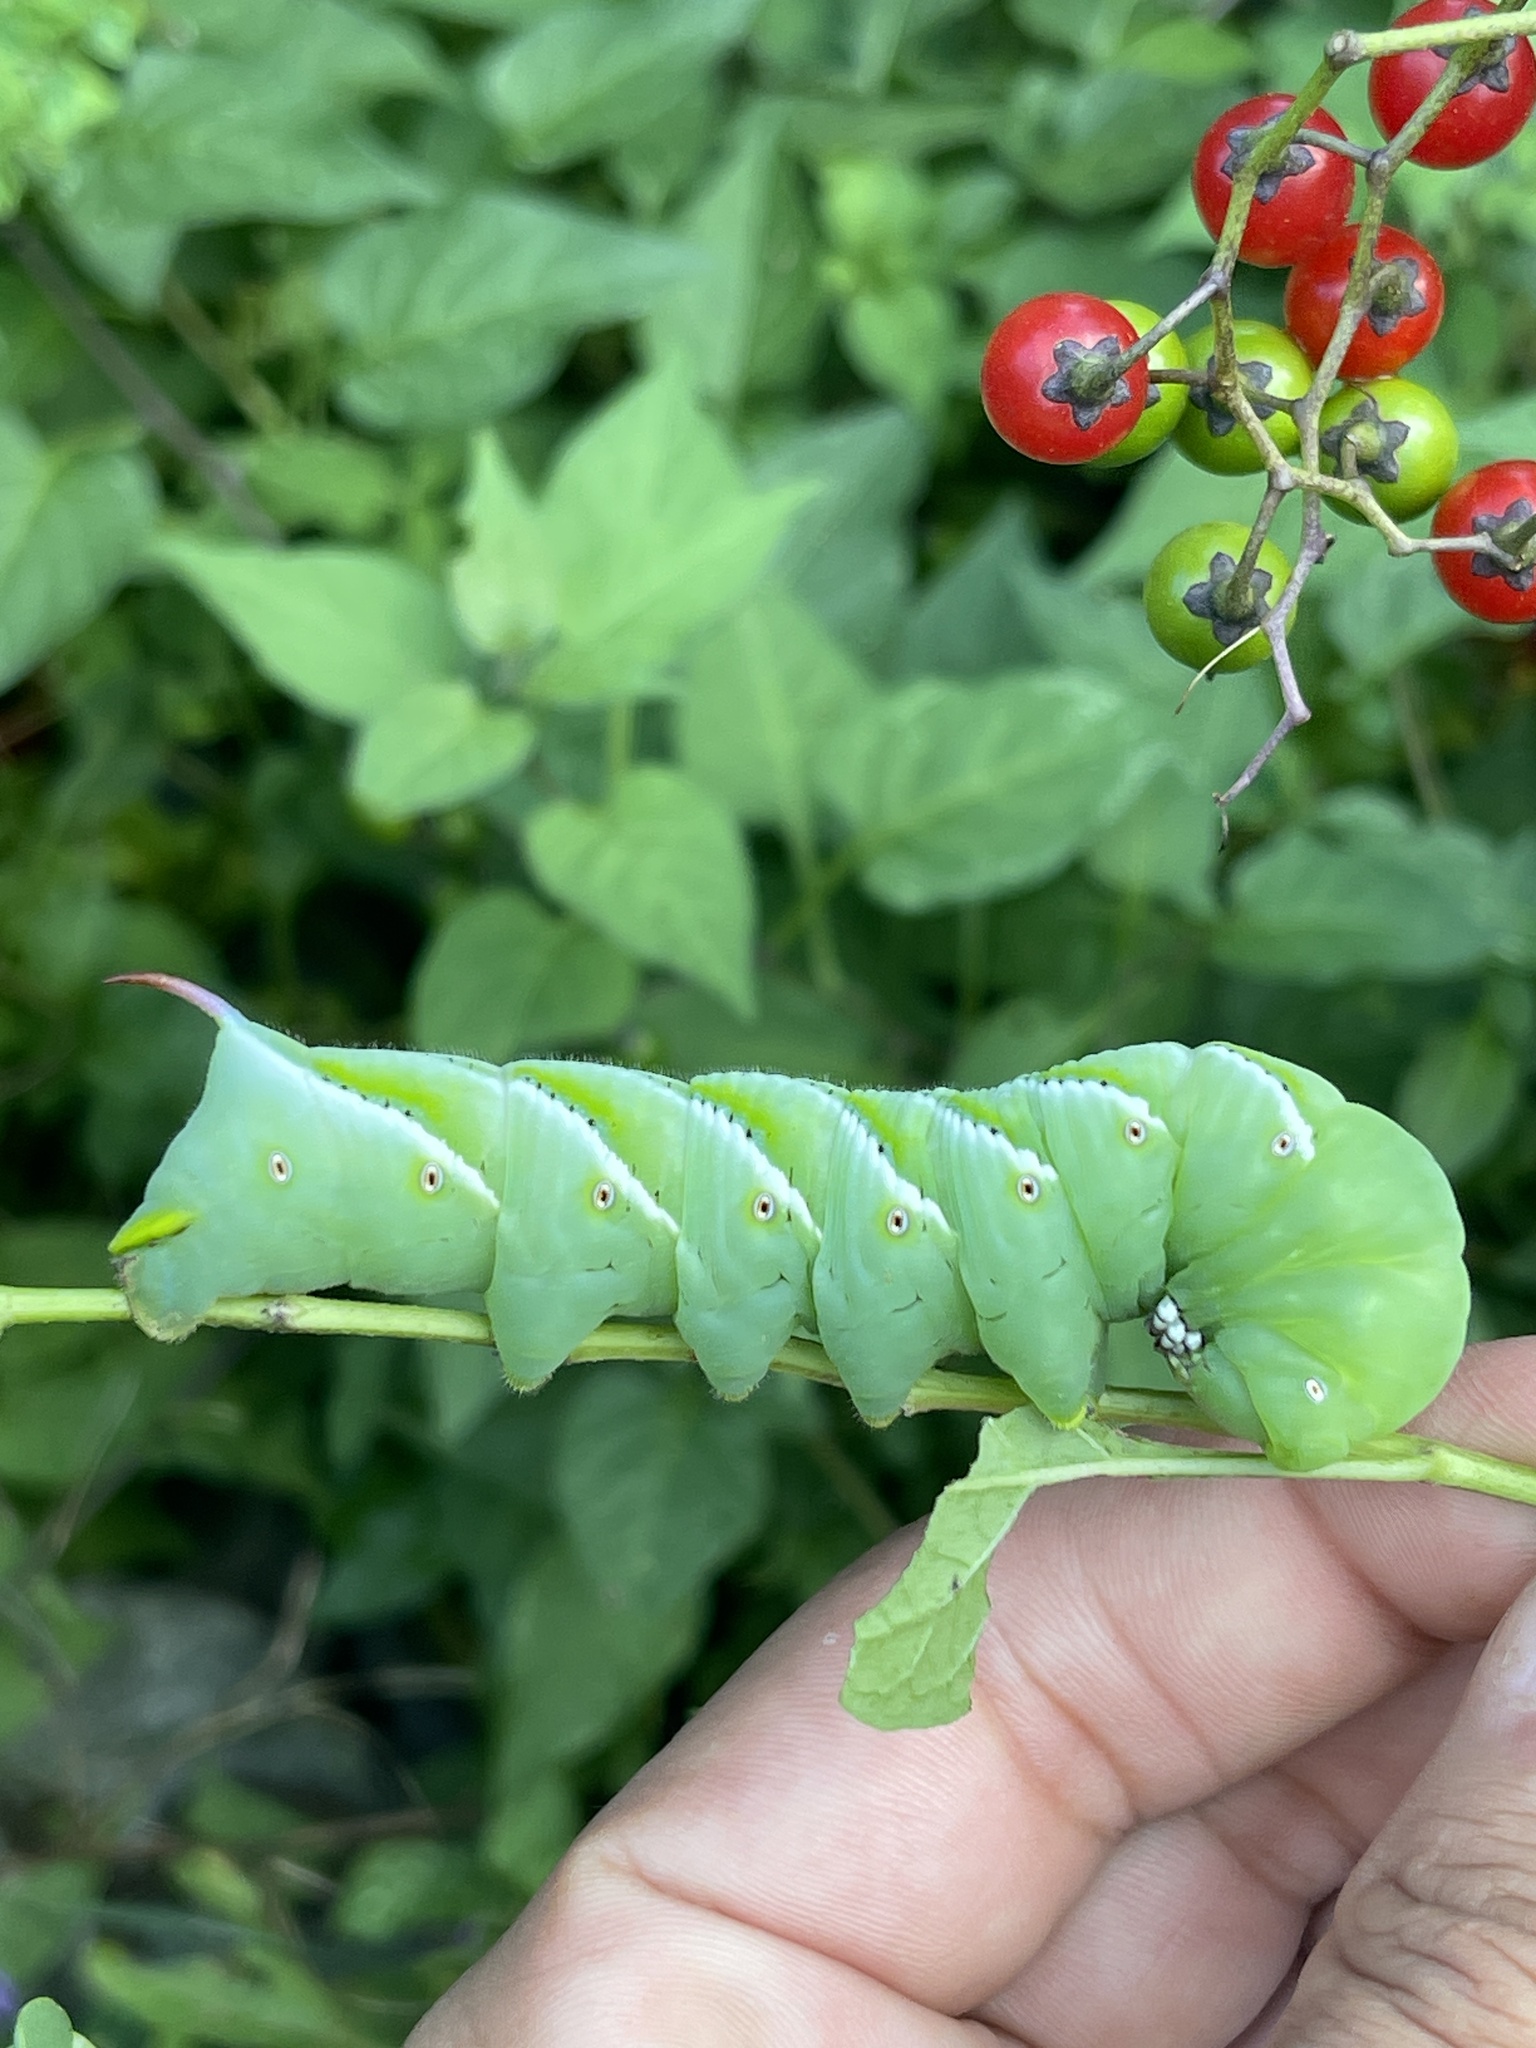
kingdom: Animalia
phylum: Arthropoda
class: Insecta
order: Lepidoptera
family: Sphingidae
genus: Manduca
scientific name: Manduca sexta
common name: Carolina sphinx
